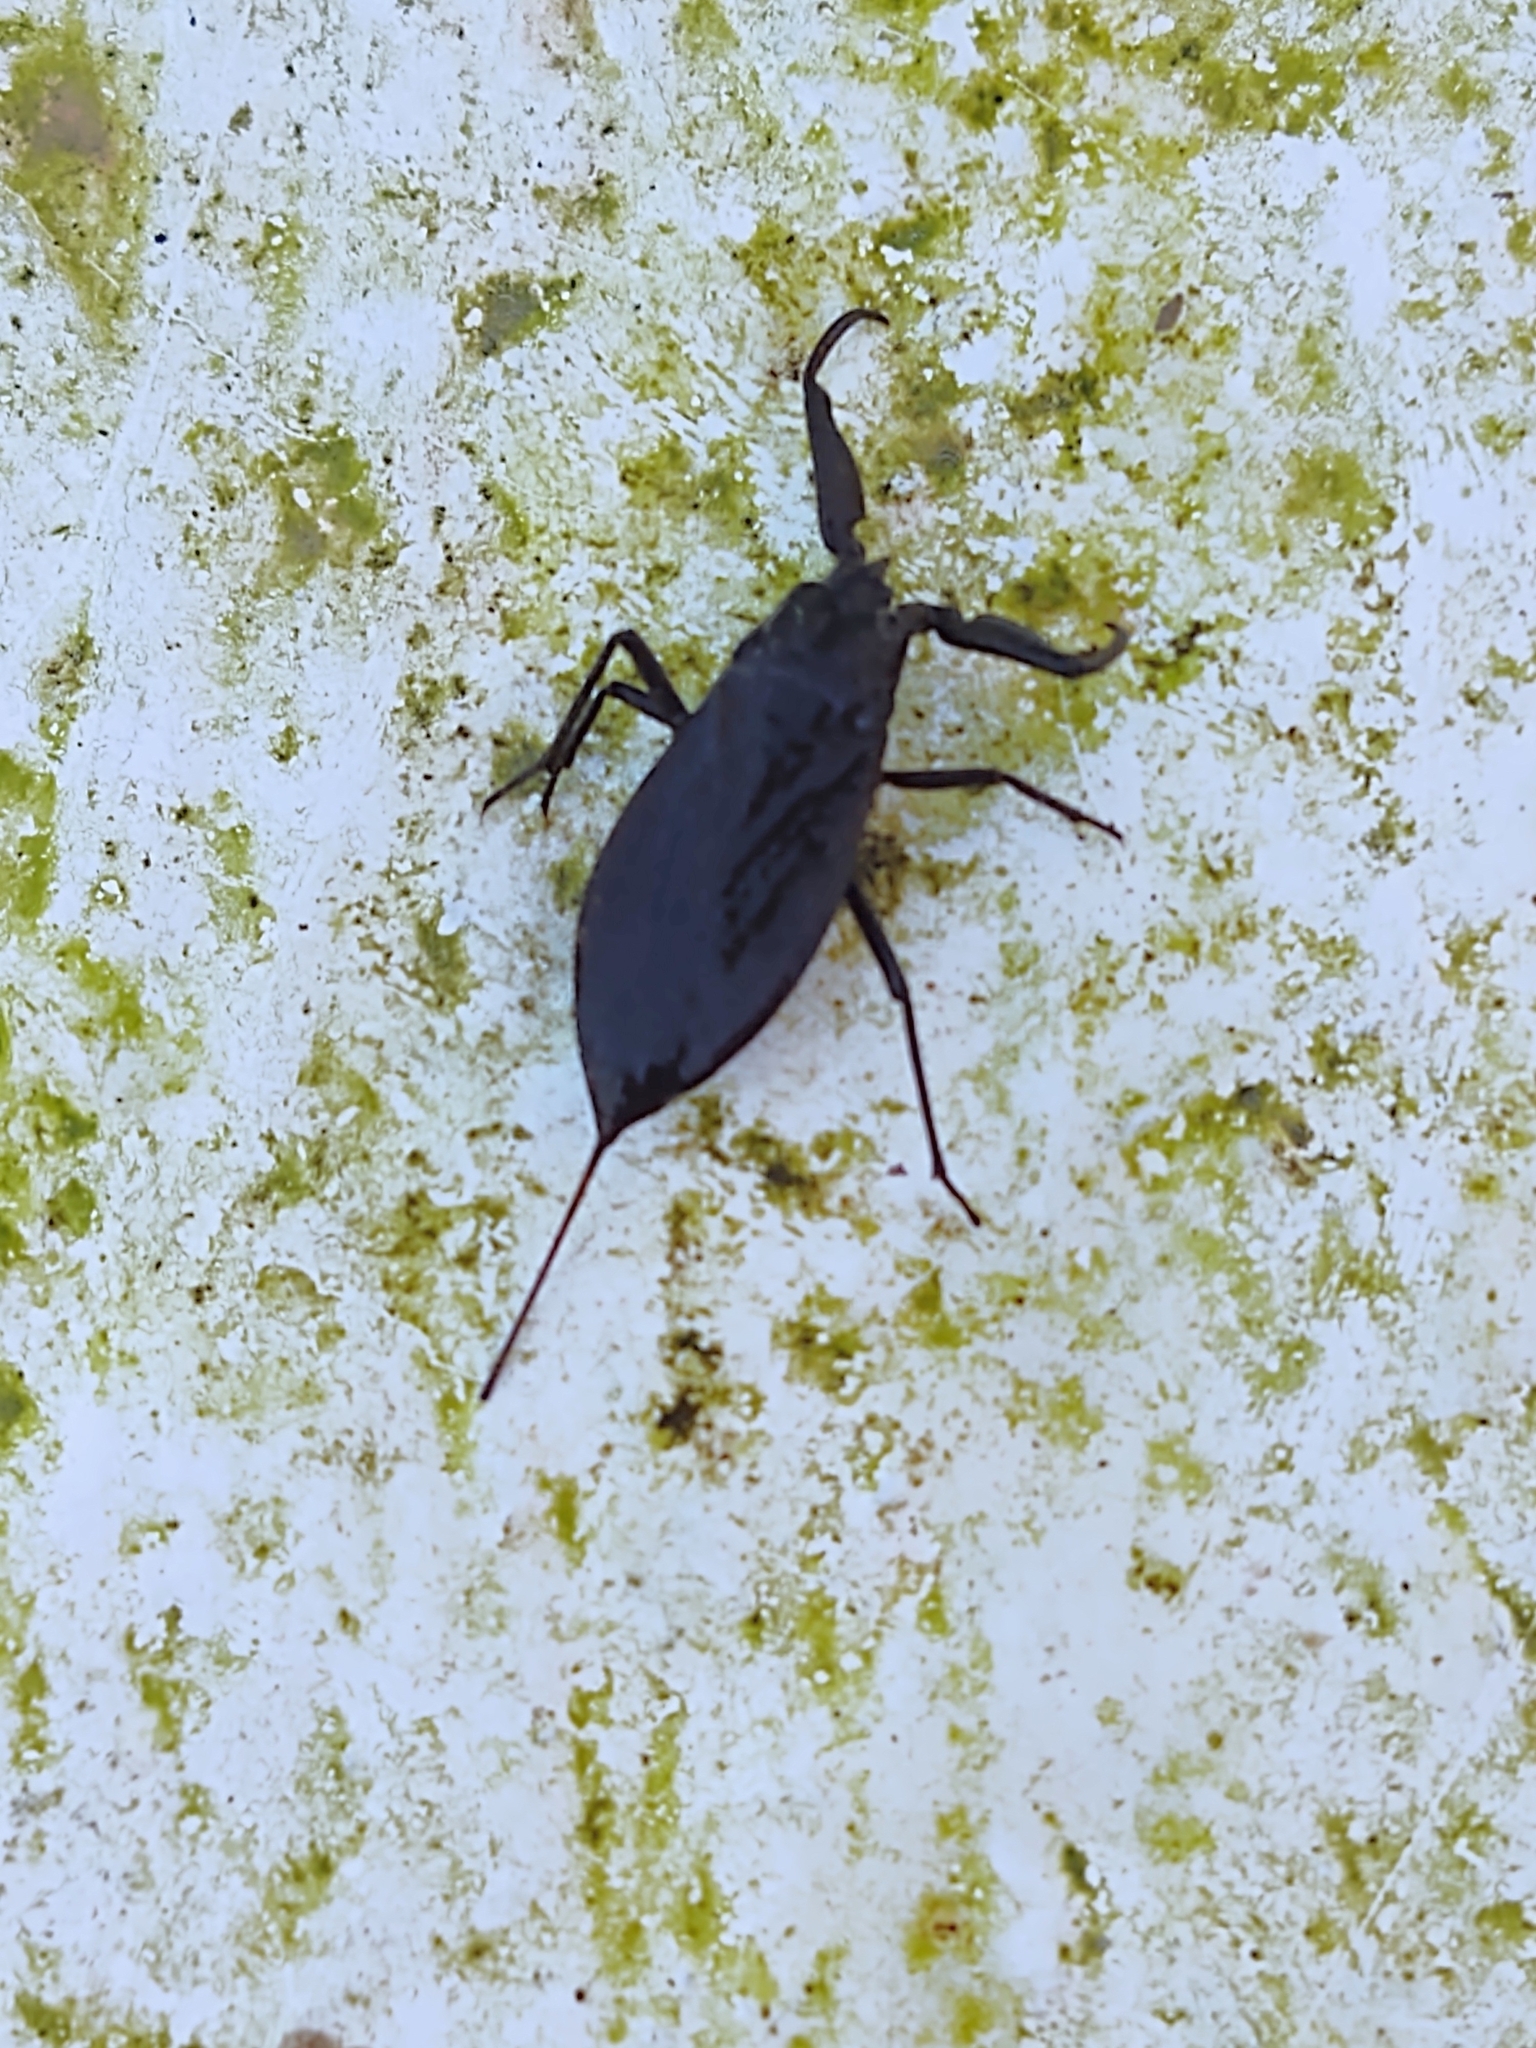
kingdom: Animalia
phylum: Arthropoda
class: Insecta
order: Hemiptera
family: Nepidae
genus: Nepa
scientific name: Nepa cinerea
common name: Water scorpion
